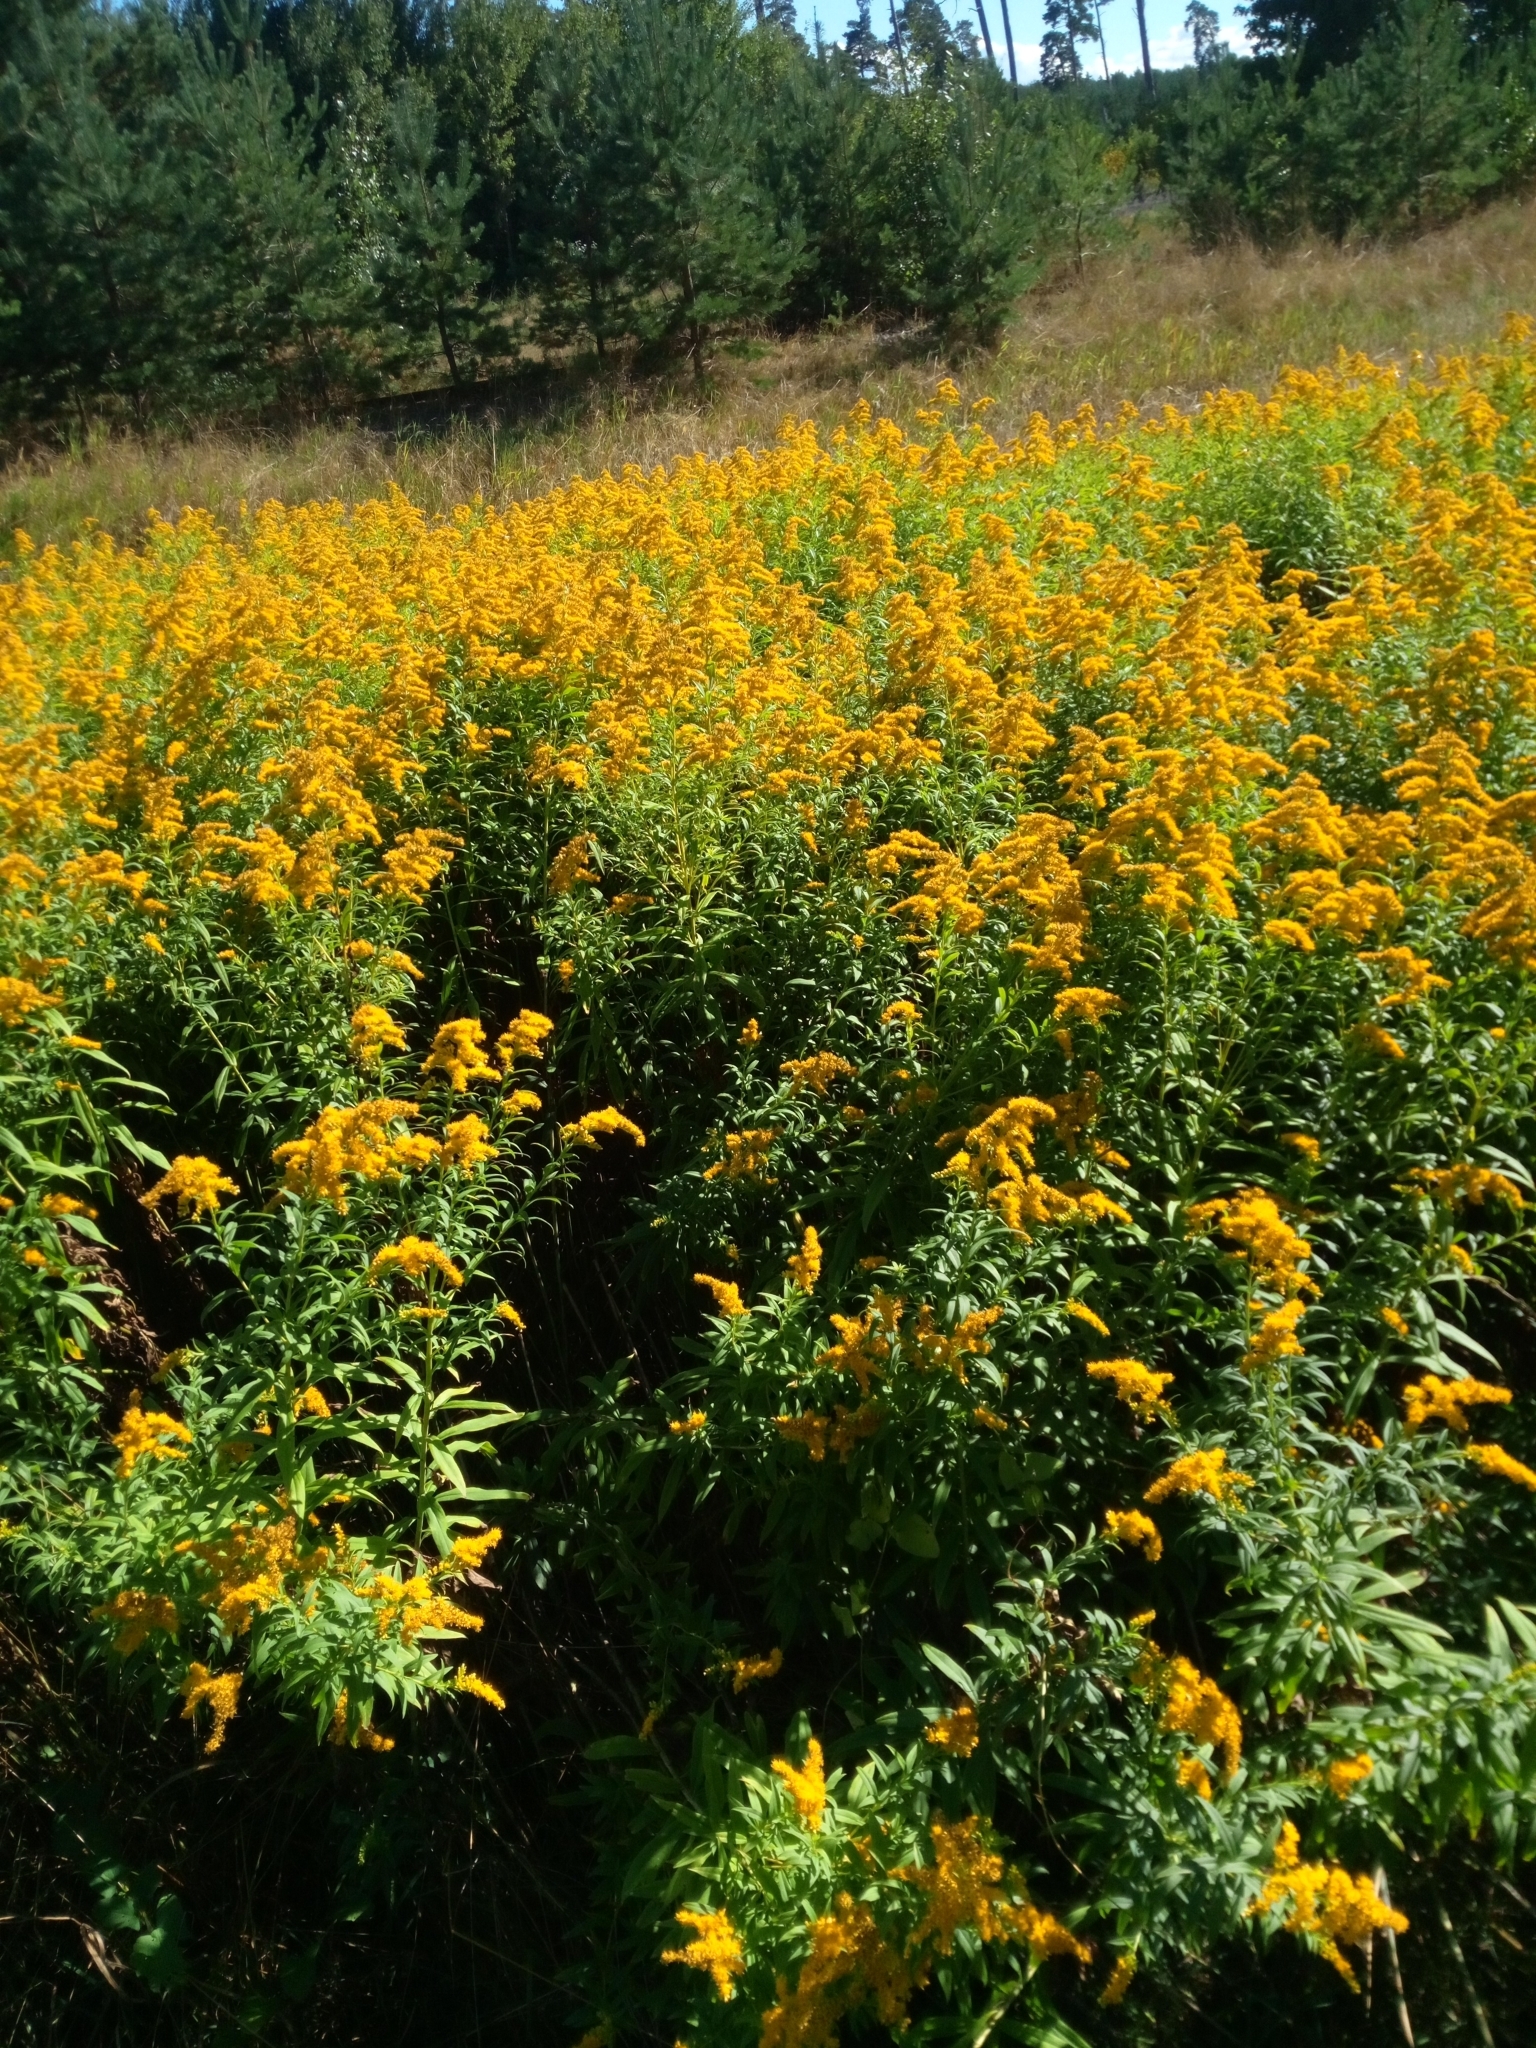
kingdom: Plantae
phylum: Tracheophyta
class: Magnoliopsida
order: Asterales
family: Asteraceae
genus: Solidago
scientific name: Solidago gigantea
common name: Giant goldenrod
